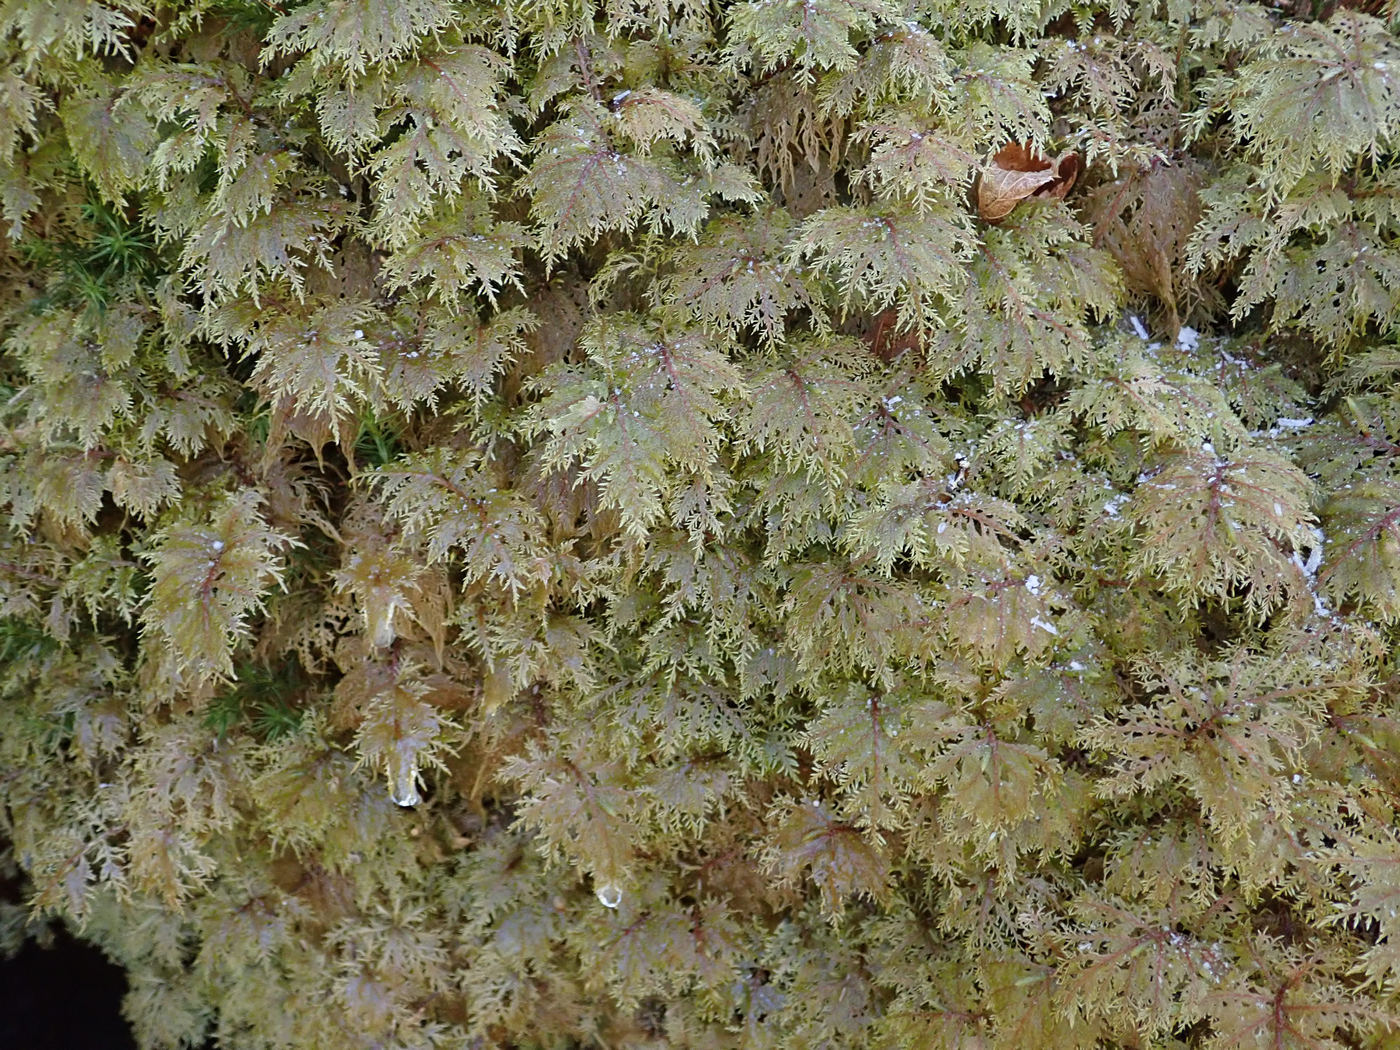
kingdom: Plantae
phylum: Bryophyta
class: Bryopsida
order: Hypnales
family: Hylocomiaceae
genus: Hylocomium
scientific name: Hylocomium splendens
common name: Stairstep moss
